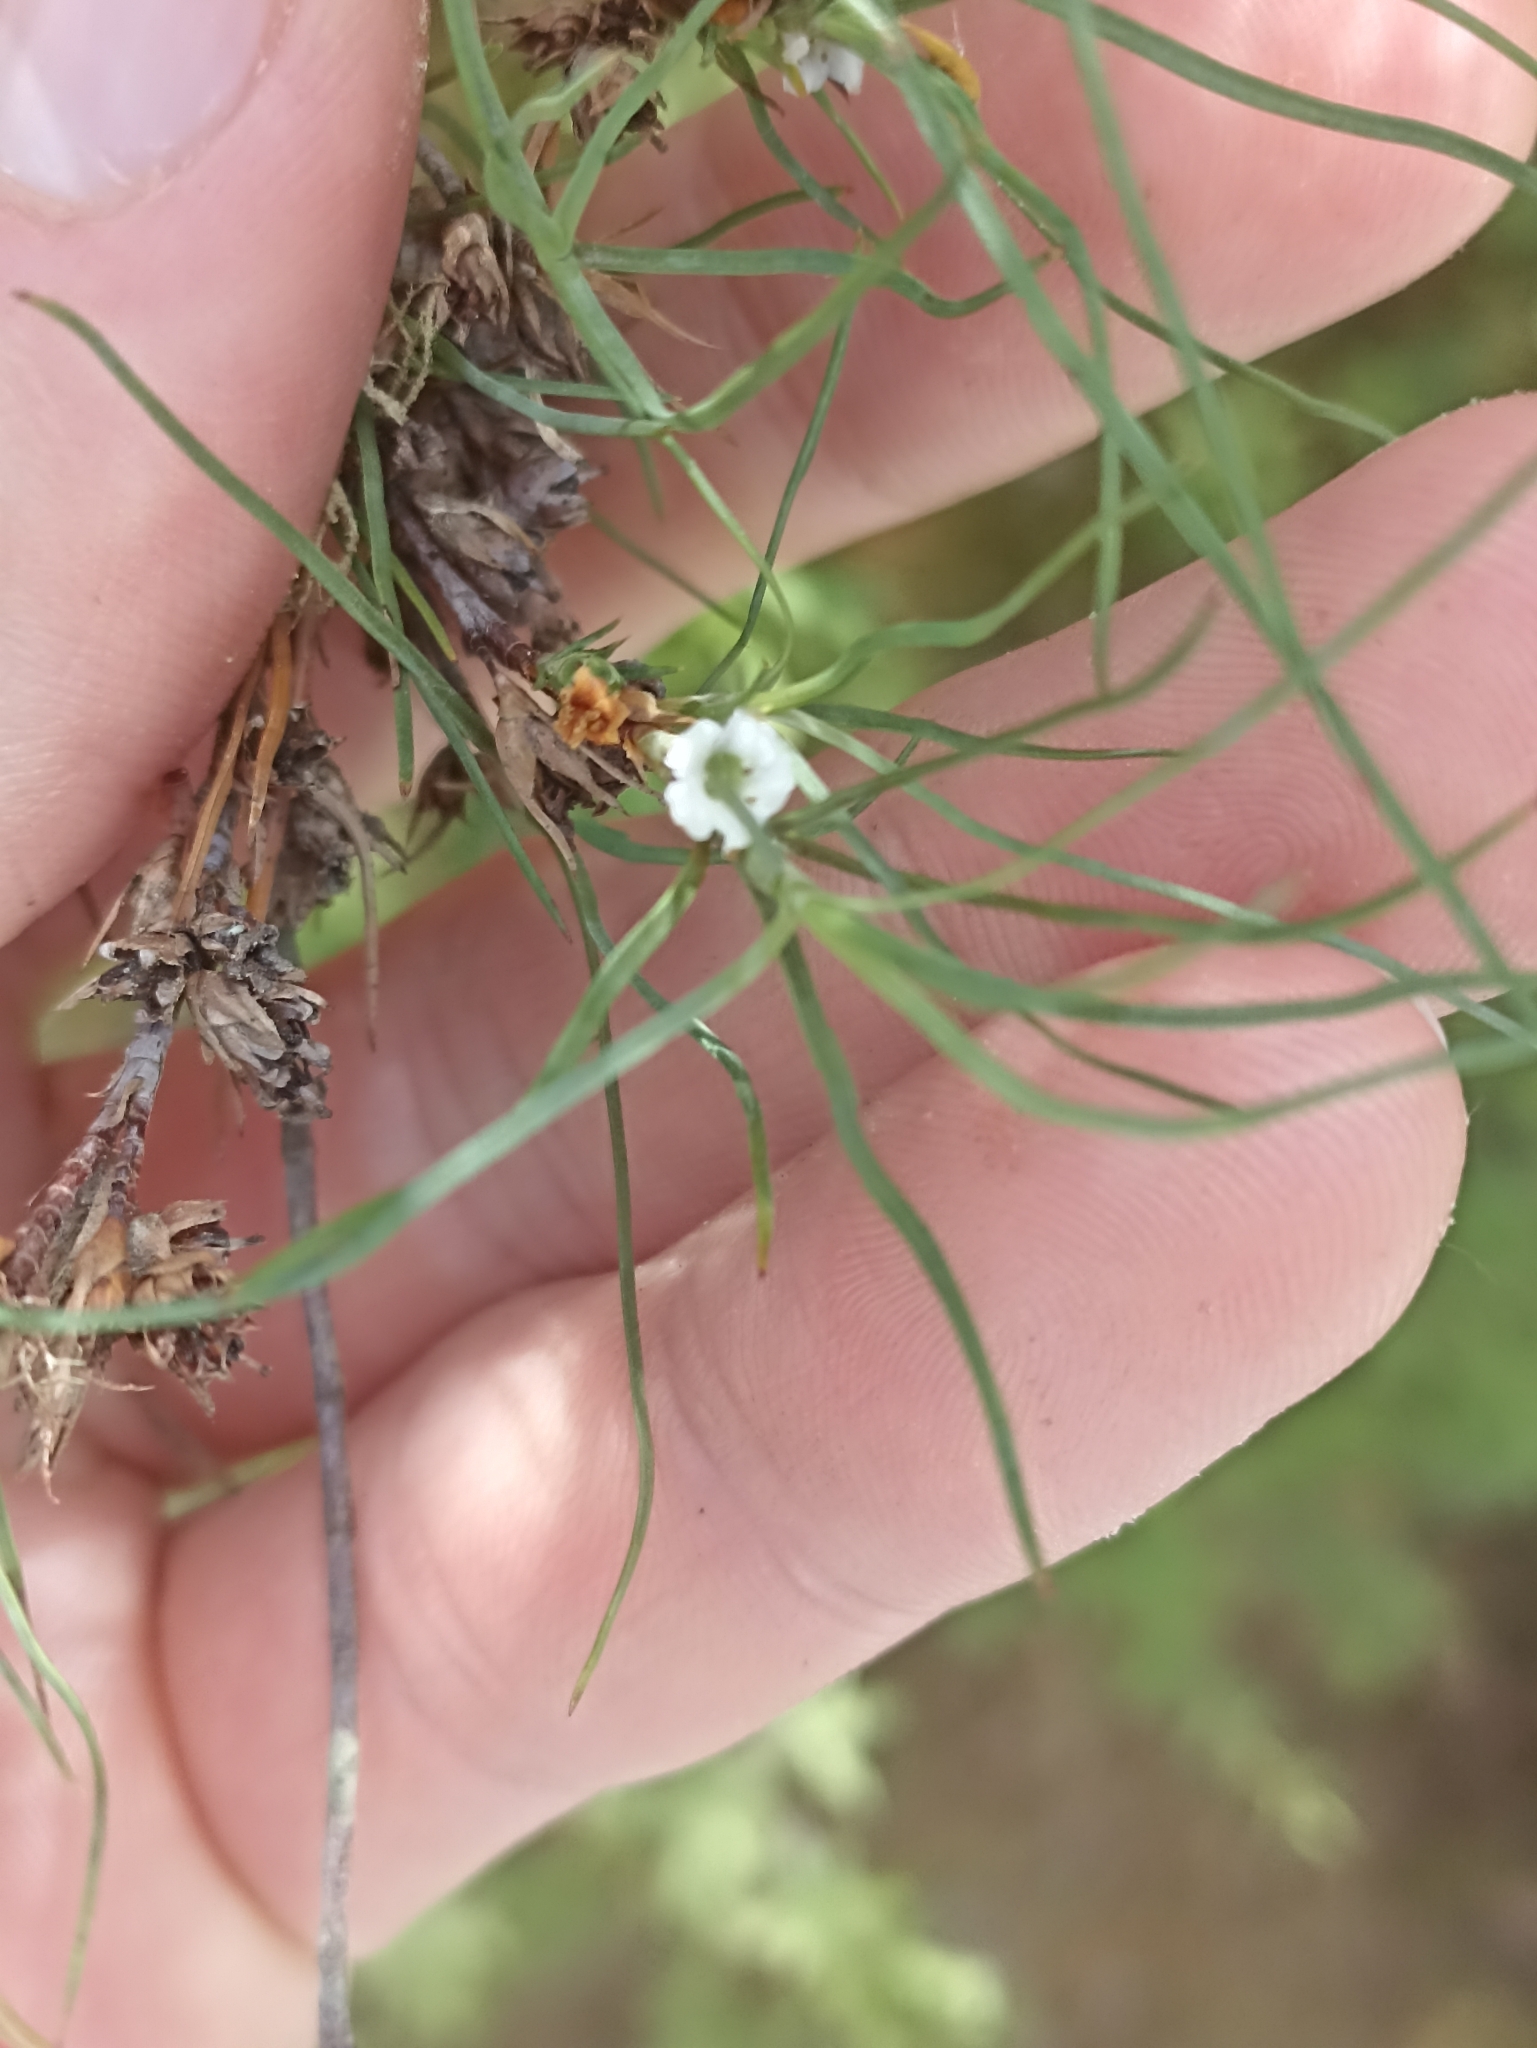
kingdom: Plantae
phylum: Tracheophyta
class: Magnoliopsida
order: Ericales
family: Ericaceae
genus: Dracophyllum
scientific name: Dracophyllum subulatum
